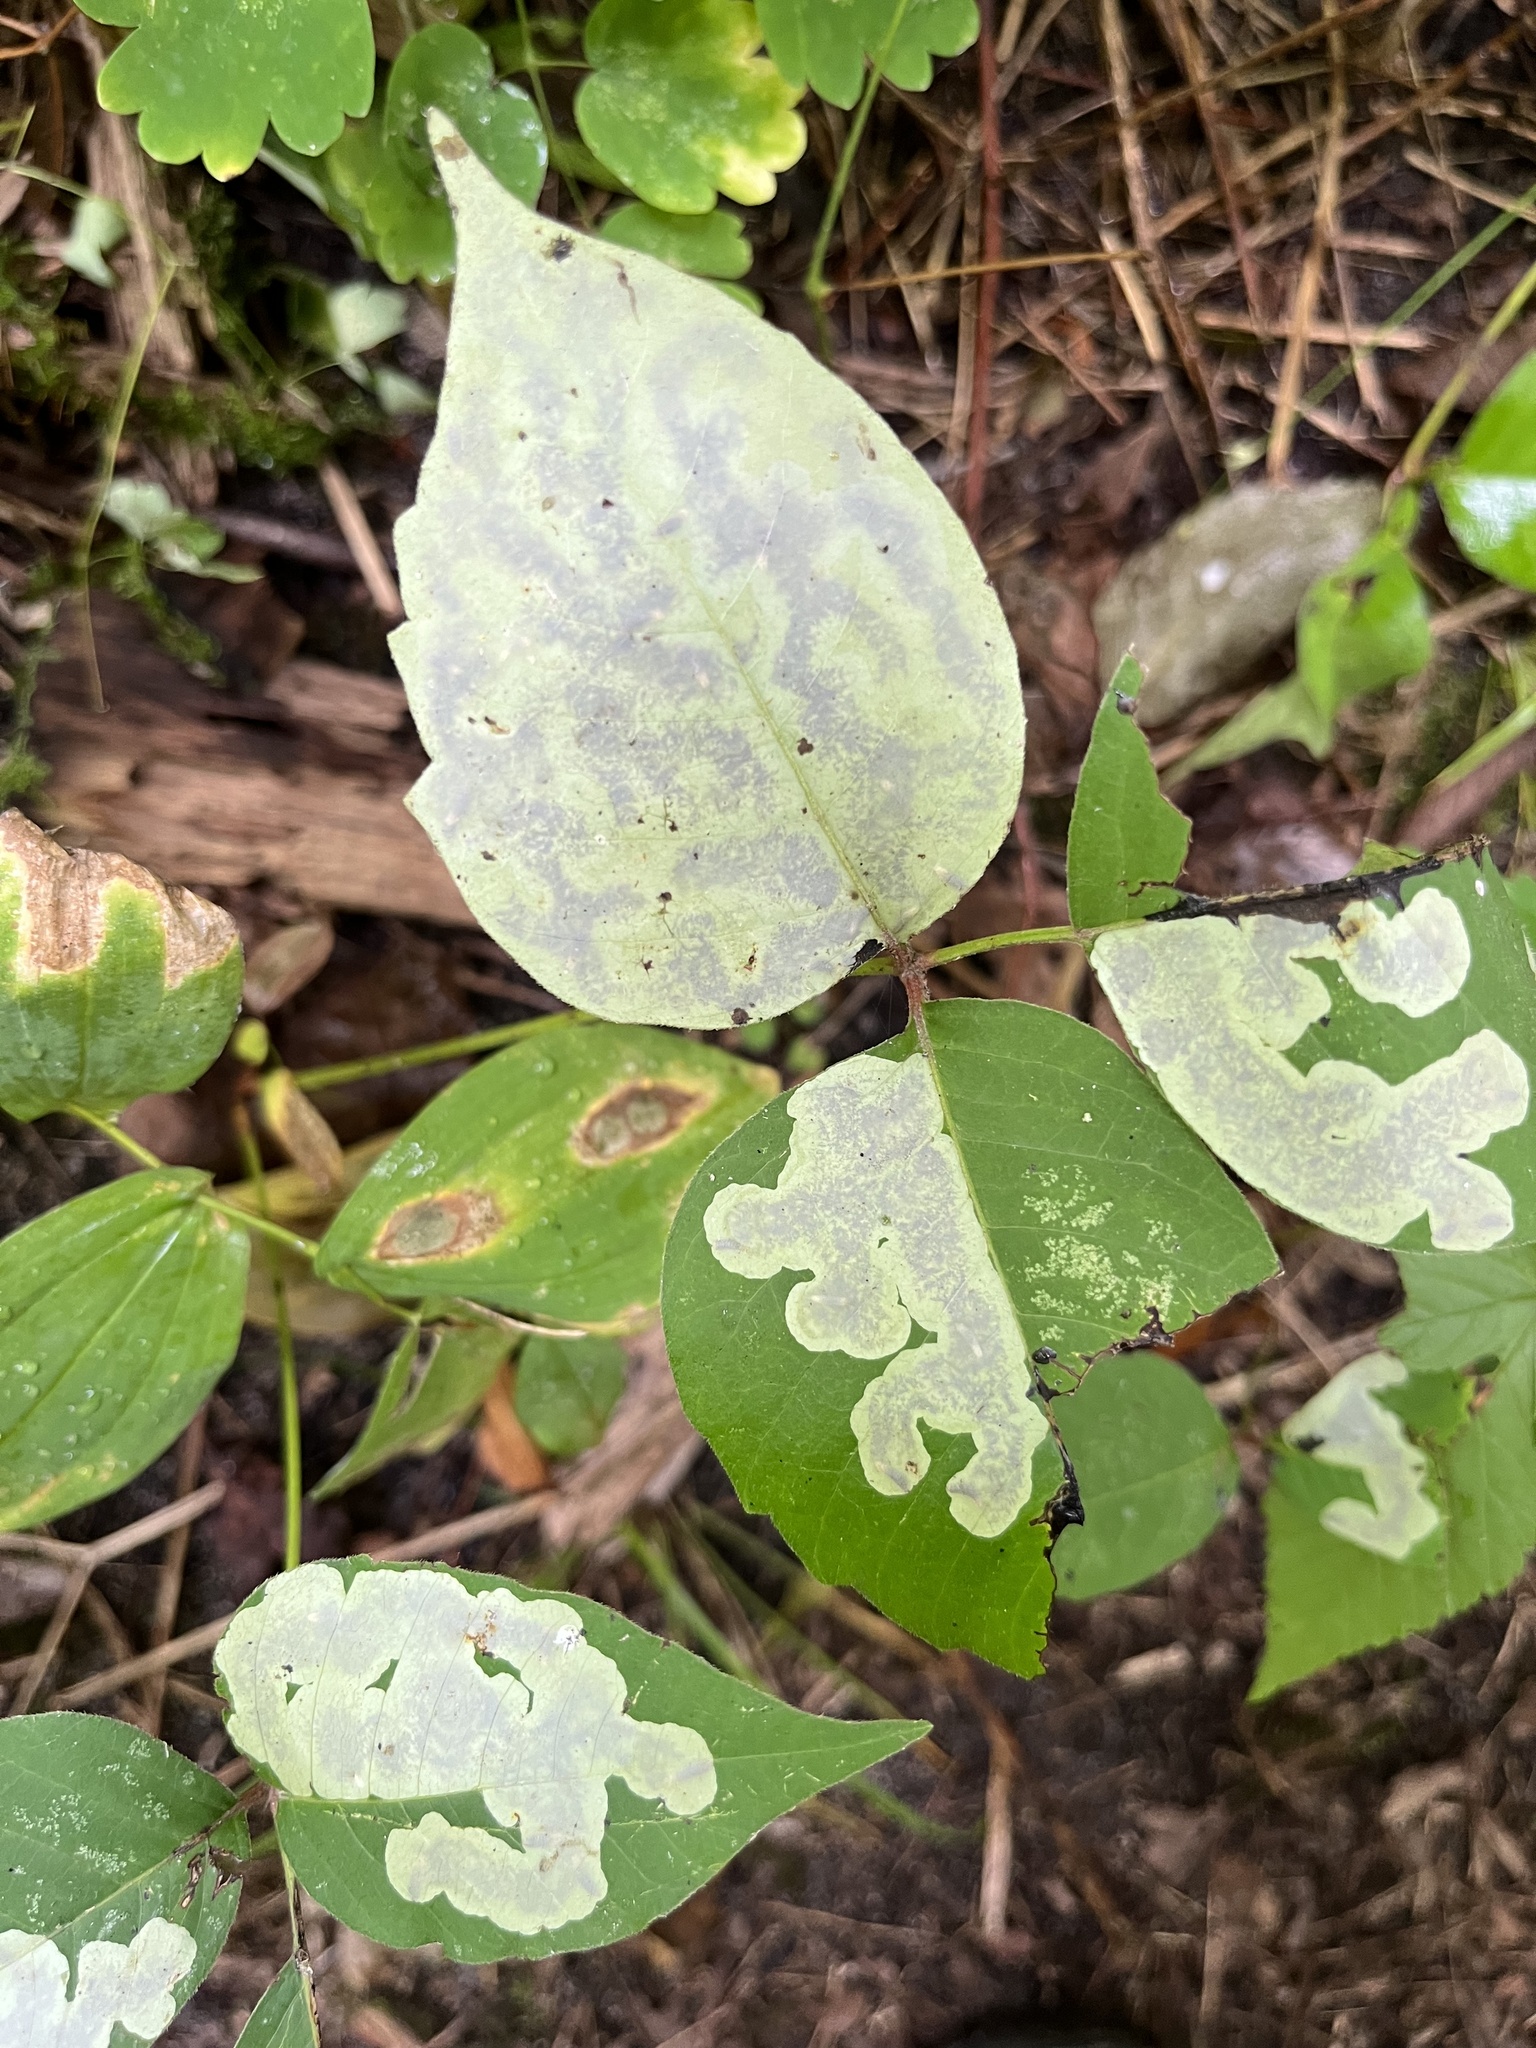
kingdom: Animalia
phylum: Arthropoda
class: Insecta
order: Lepidoptera
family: Gracillariidae
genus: Cameraria
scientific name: Cameraria guttifinitella
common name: Poison ivy leaf-miner moth
